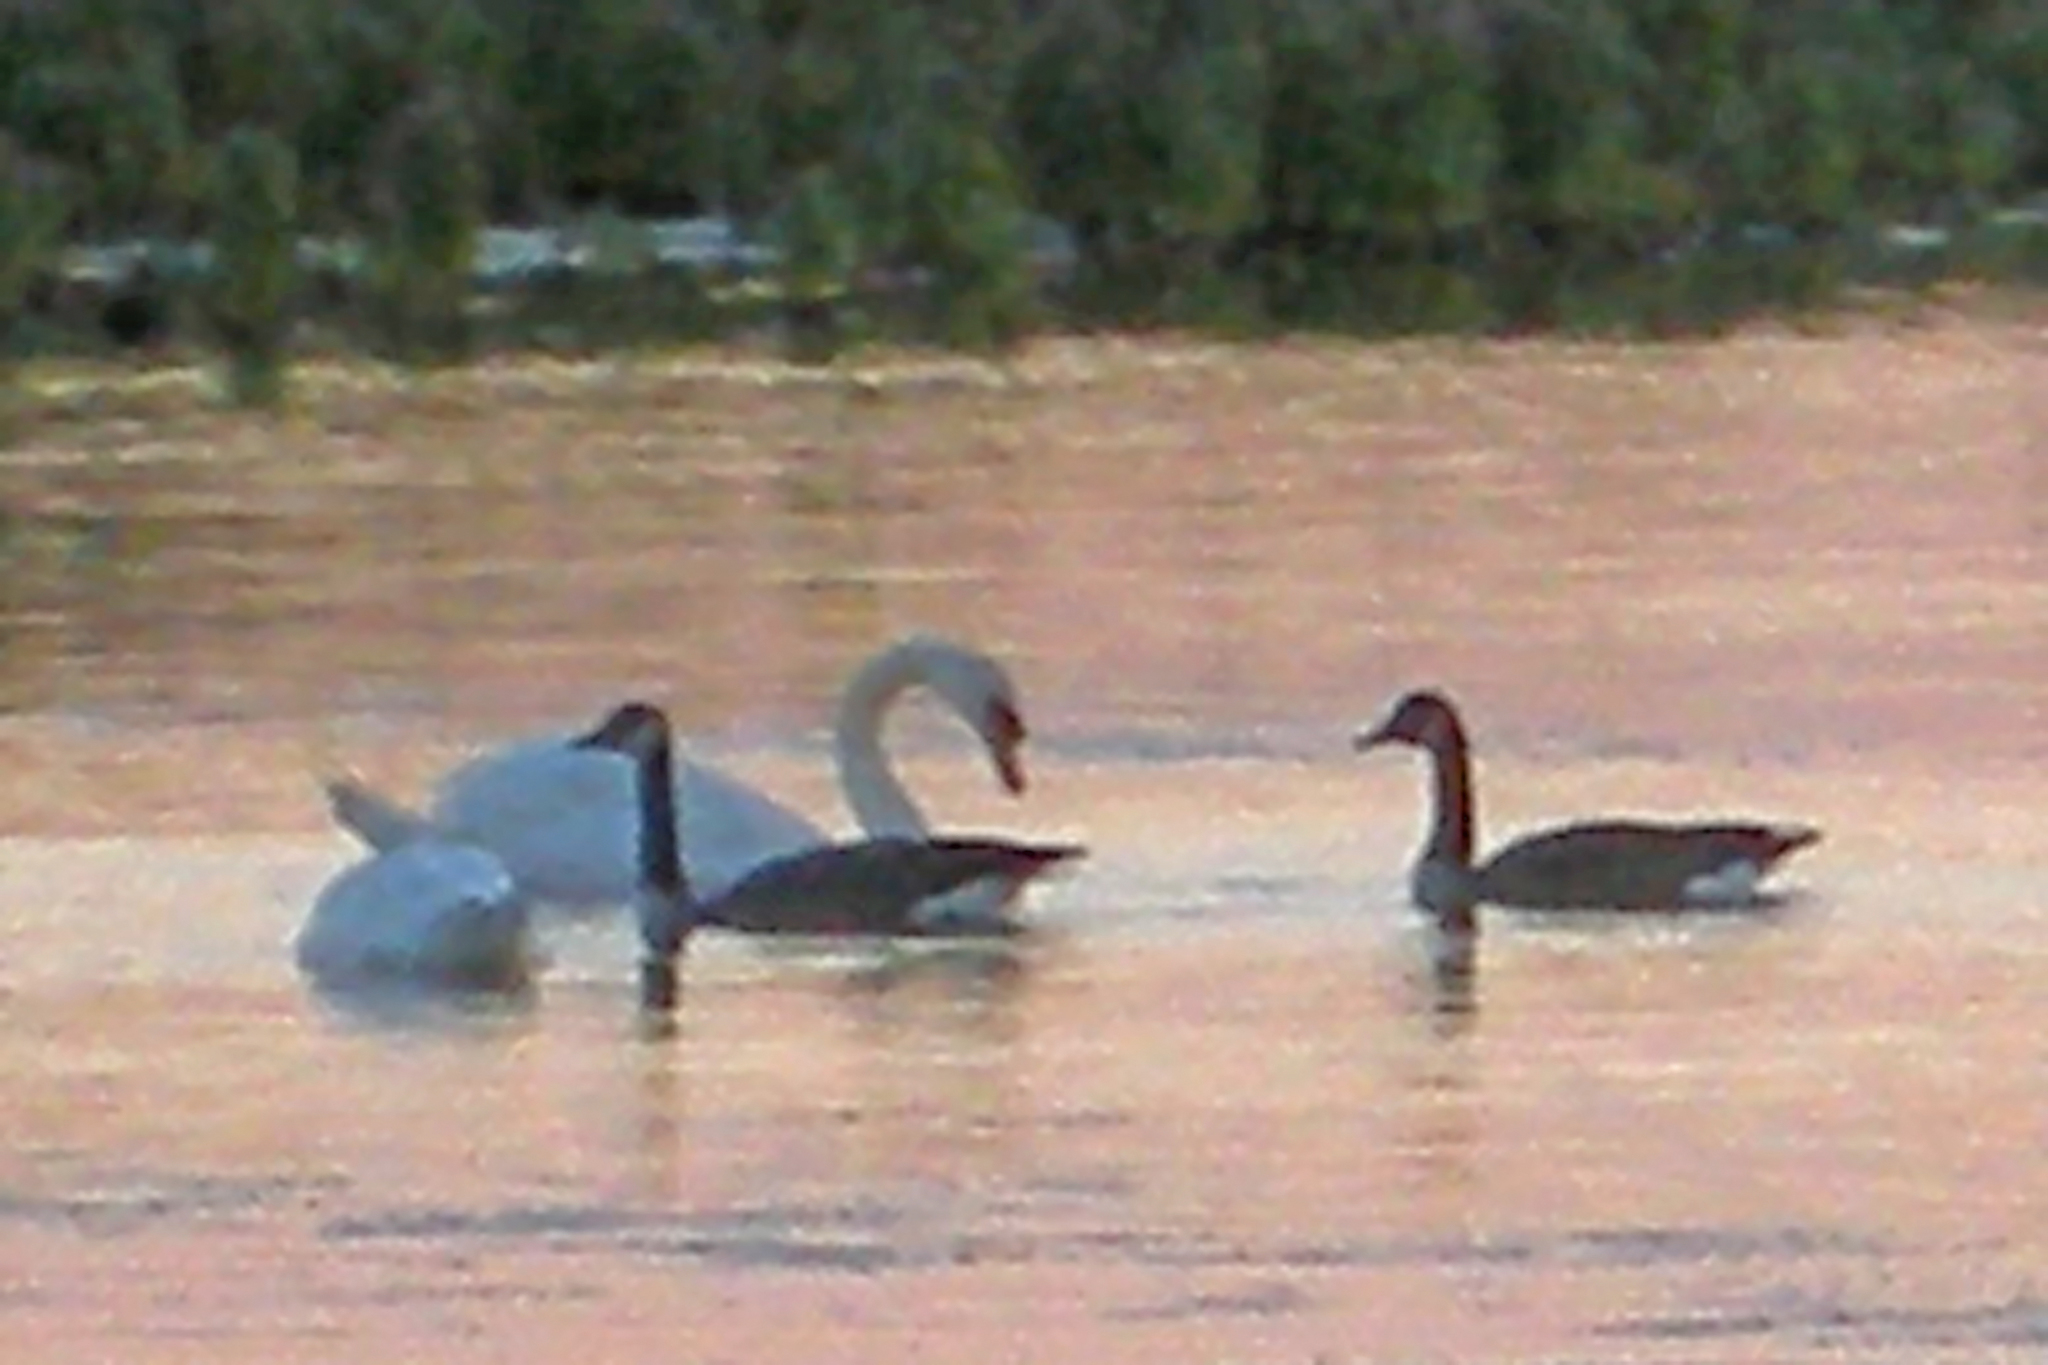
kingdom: Animalia
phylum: Chordata
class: Aves
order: Anseriformes
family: Anatidae
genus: Cygnus
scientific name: Cygnus olor
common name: Mute swan
